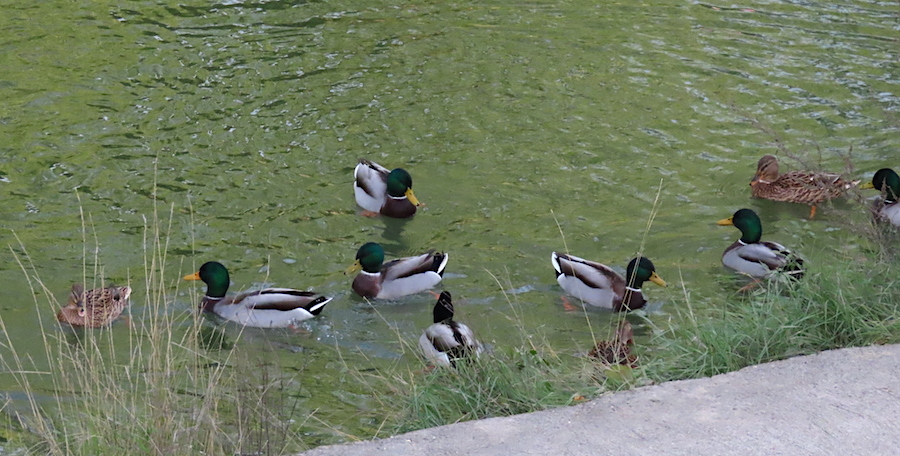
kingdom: Animalia
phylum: Chordata
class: Aves
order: Anseriformes
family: Anatidae
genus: Anas
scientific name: Anas platyrhynchos
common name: Mallard
